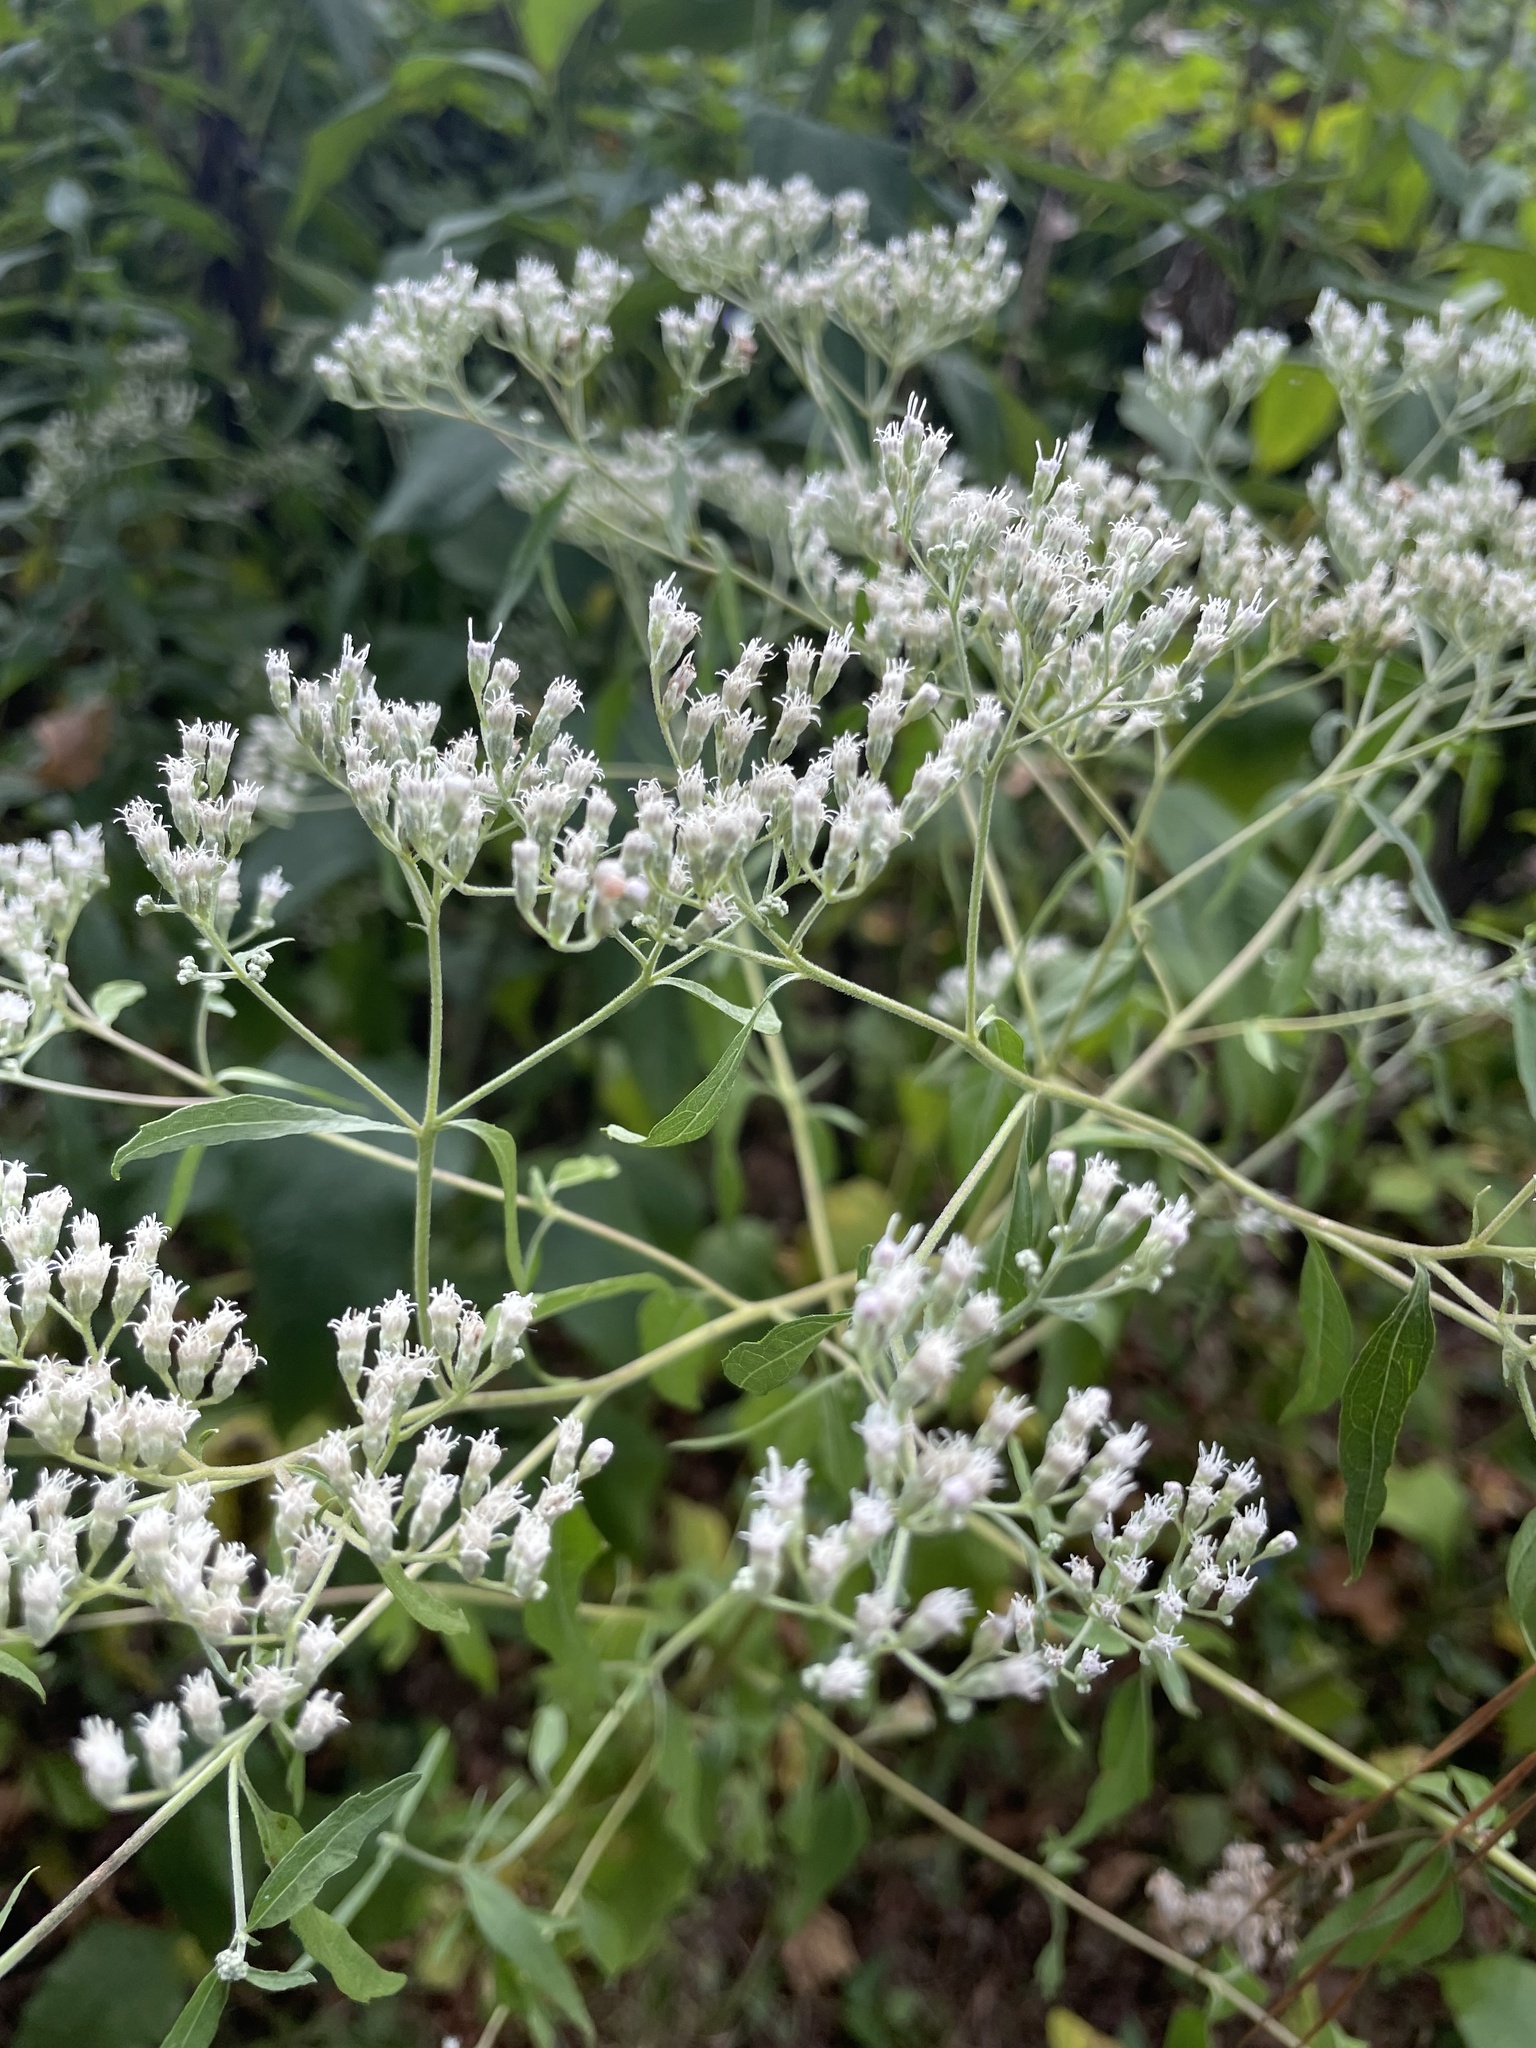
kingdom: Plantae
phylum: Tracheophyta
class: Magnoliopsida
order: Asterales
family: Asteraceae
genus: Eupatorium
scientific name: Eupatorium serotinum
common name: Late boneset
